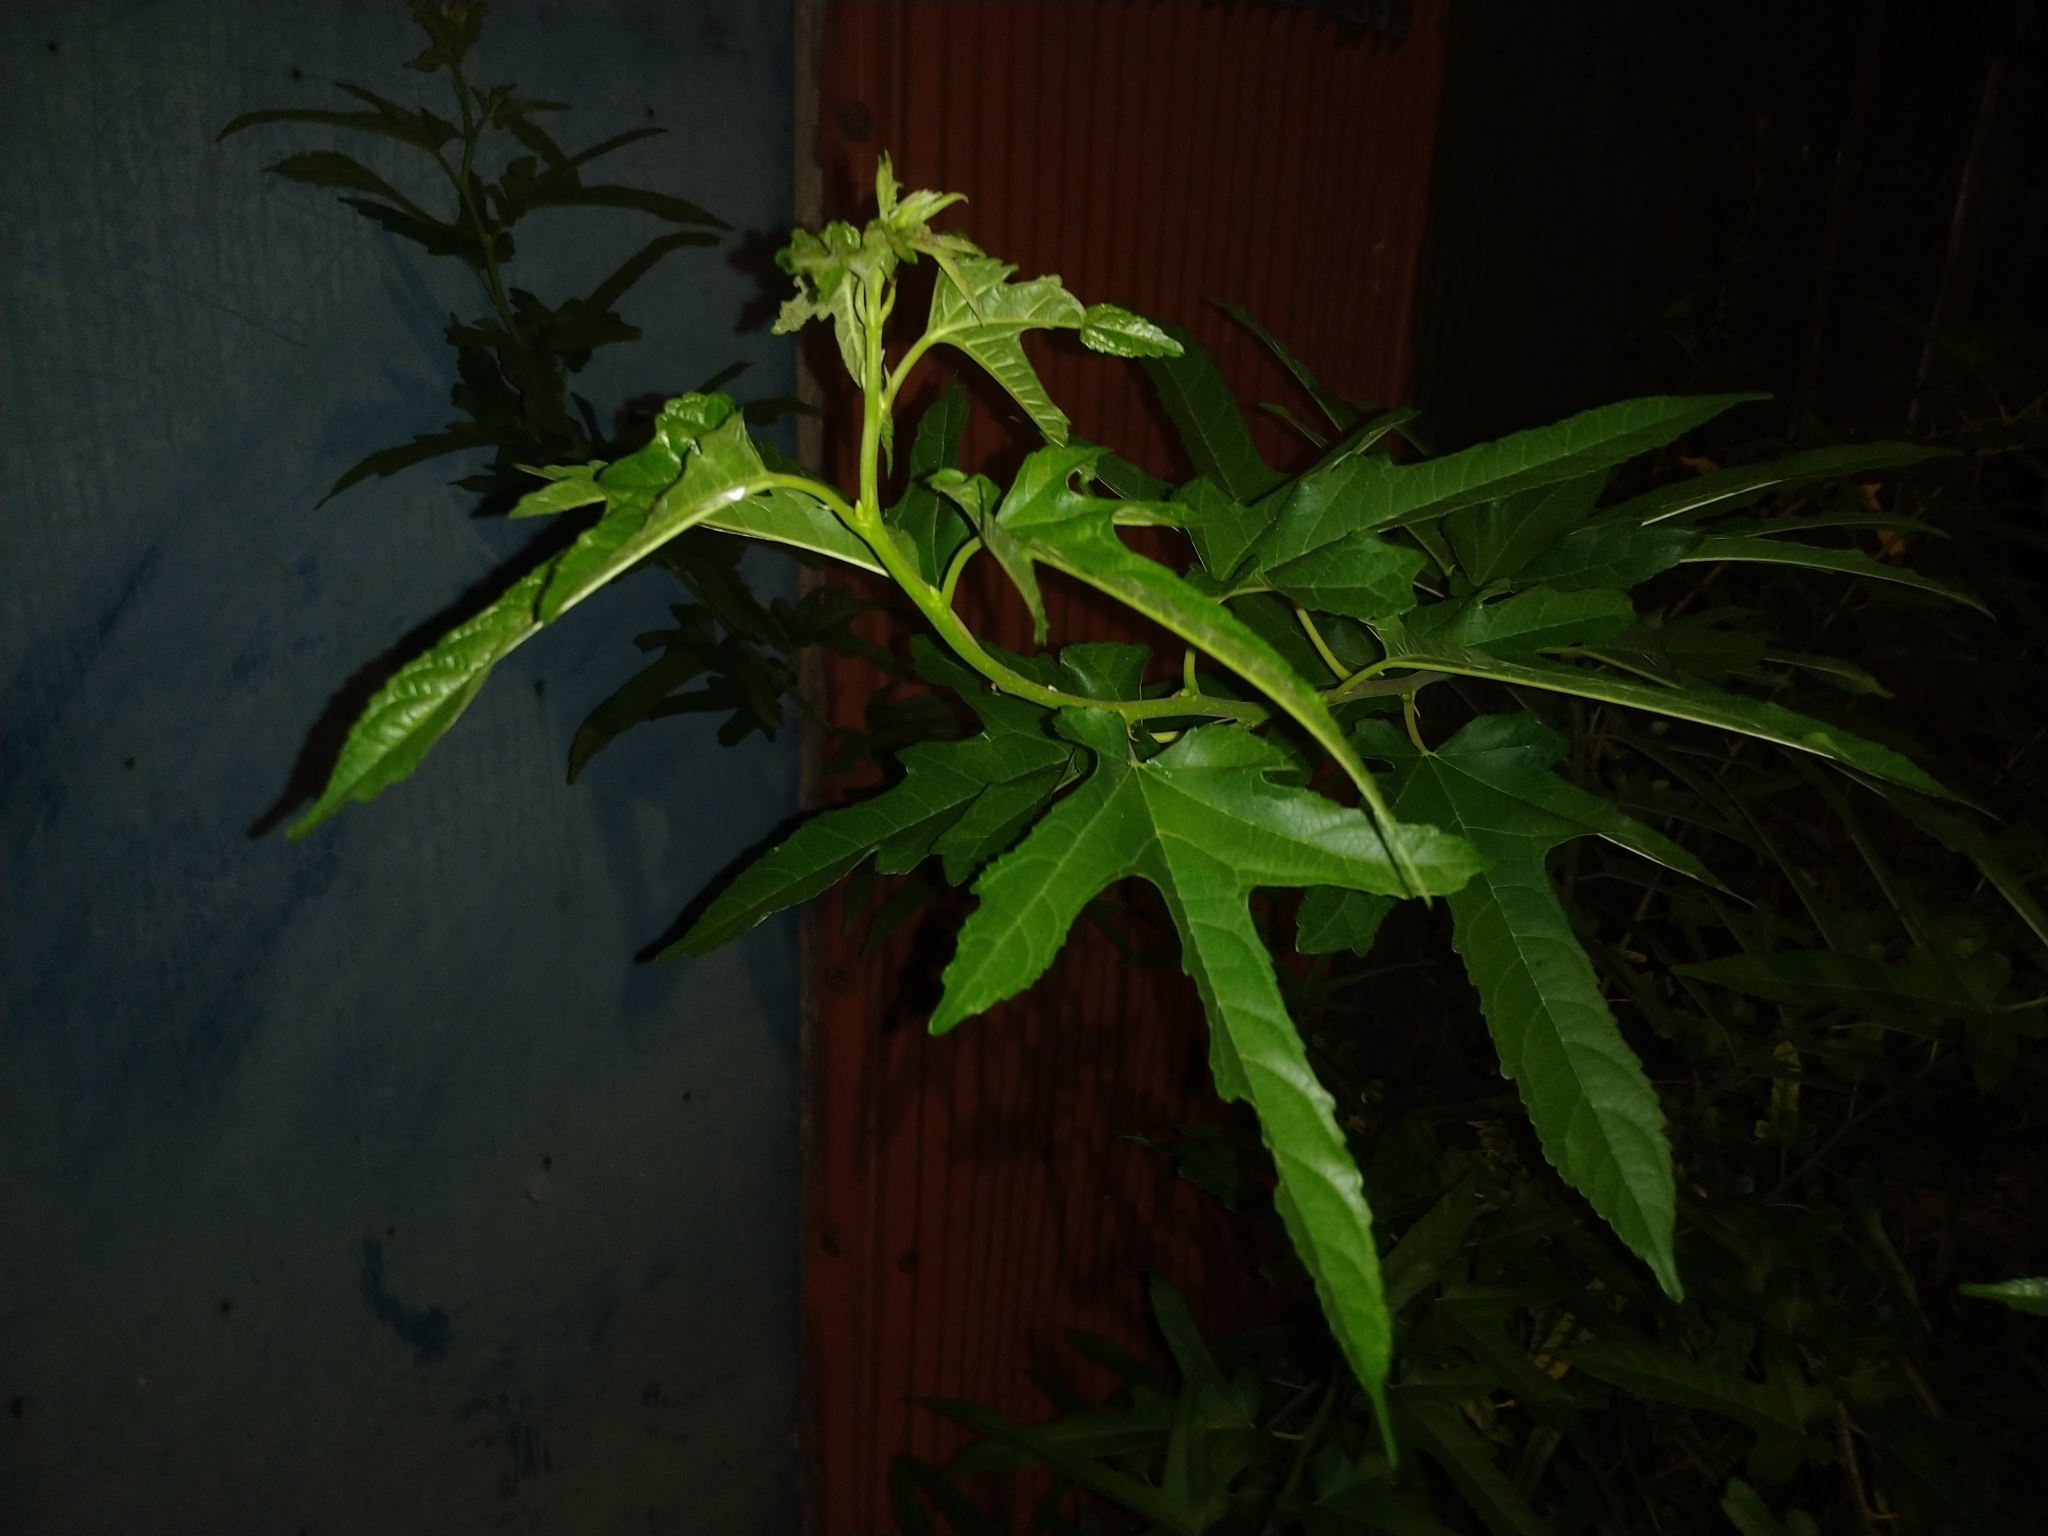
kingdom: Plantae
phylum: Tracheophyta
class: Magnoliopsida
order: Rosales
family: Moraceae
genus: Morus
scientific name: Morus indica
